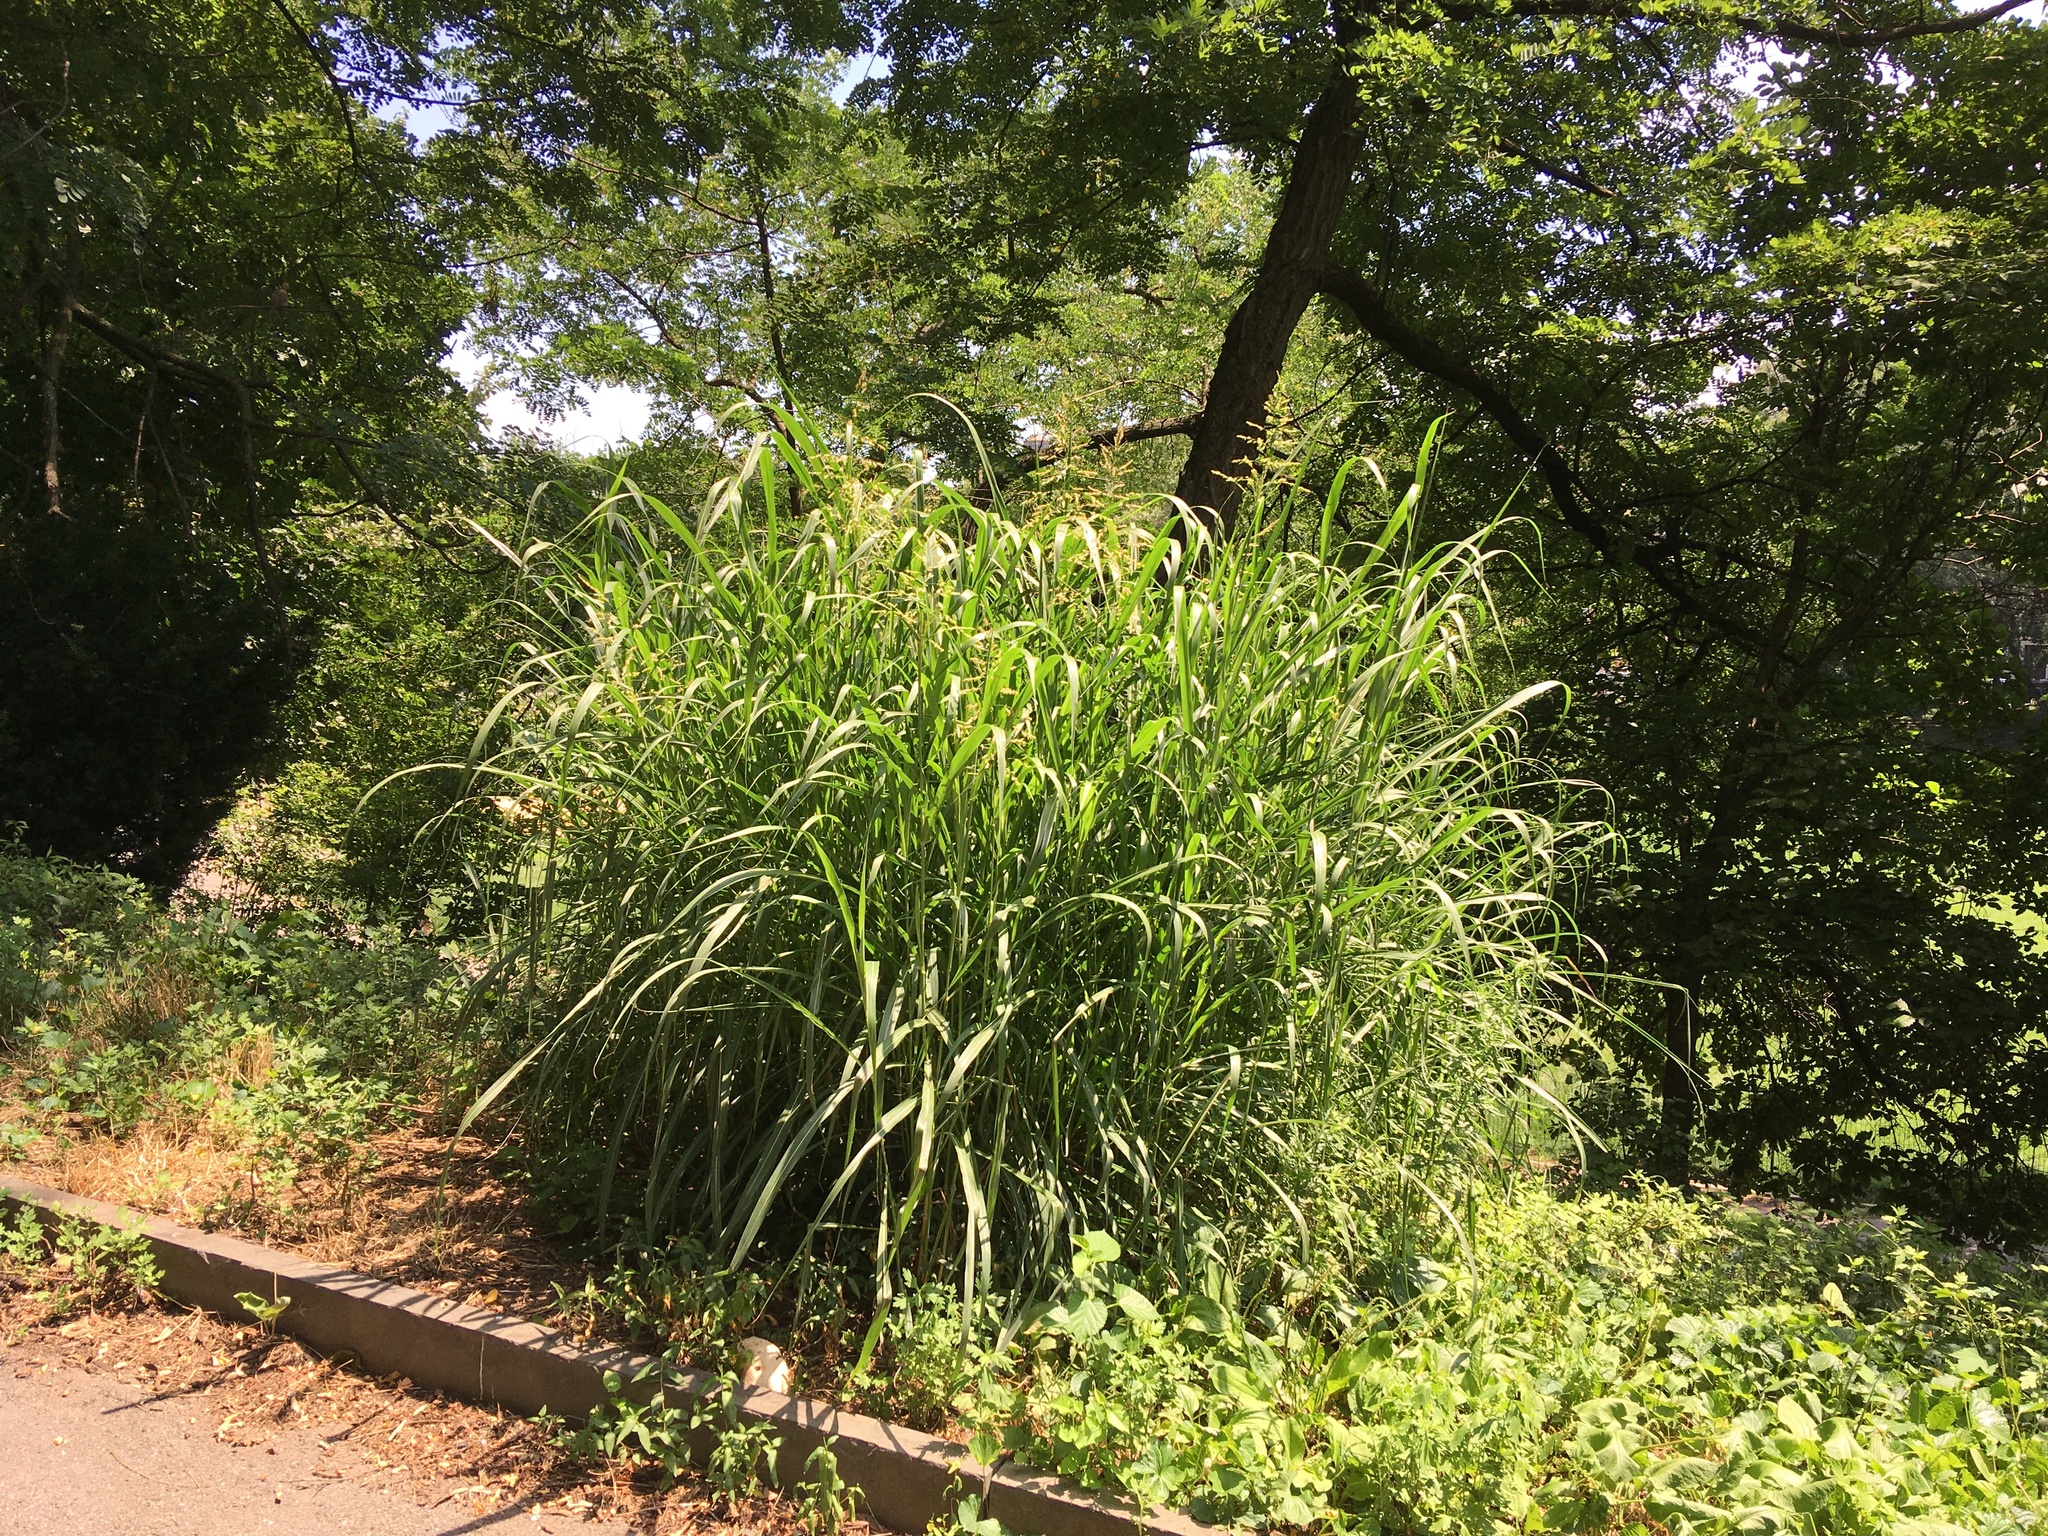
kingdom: Plantae
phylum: Tracheophyta
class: Liliopsida
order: Poales
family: Poaceae
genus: Sorghum
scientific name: Sorghum halepense
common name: Johnson-grass
